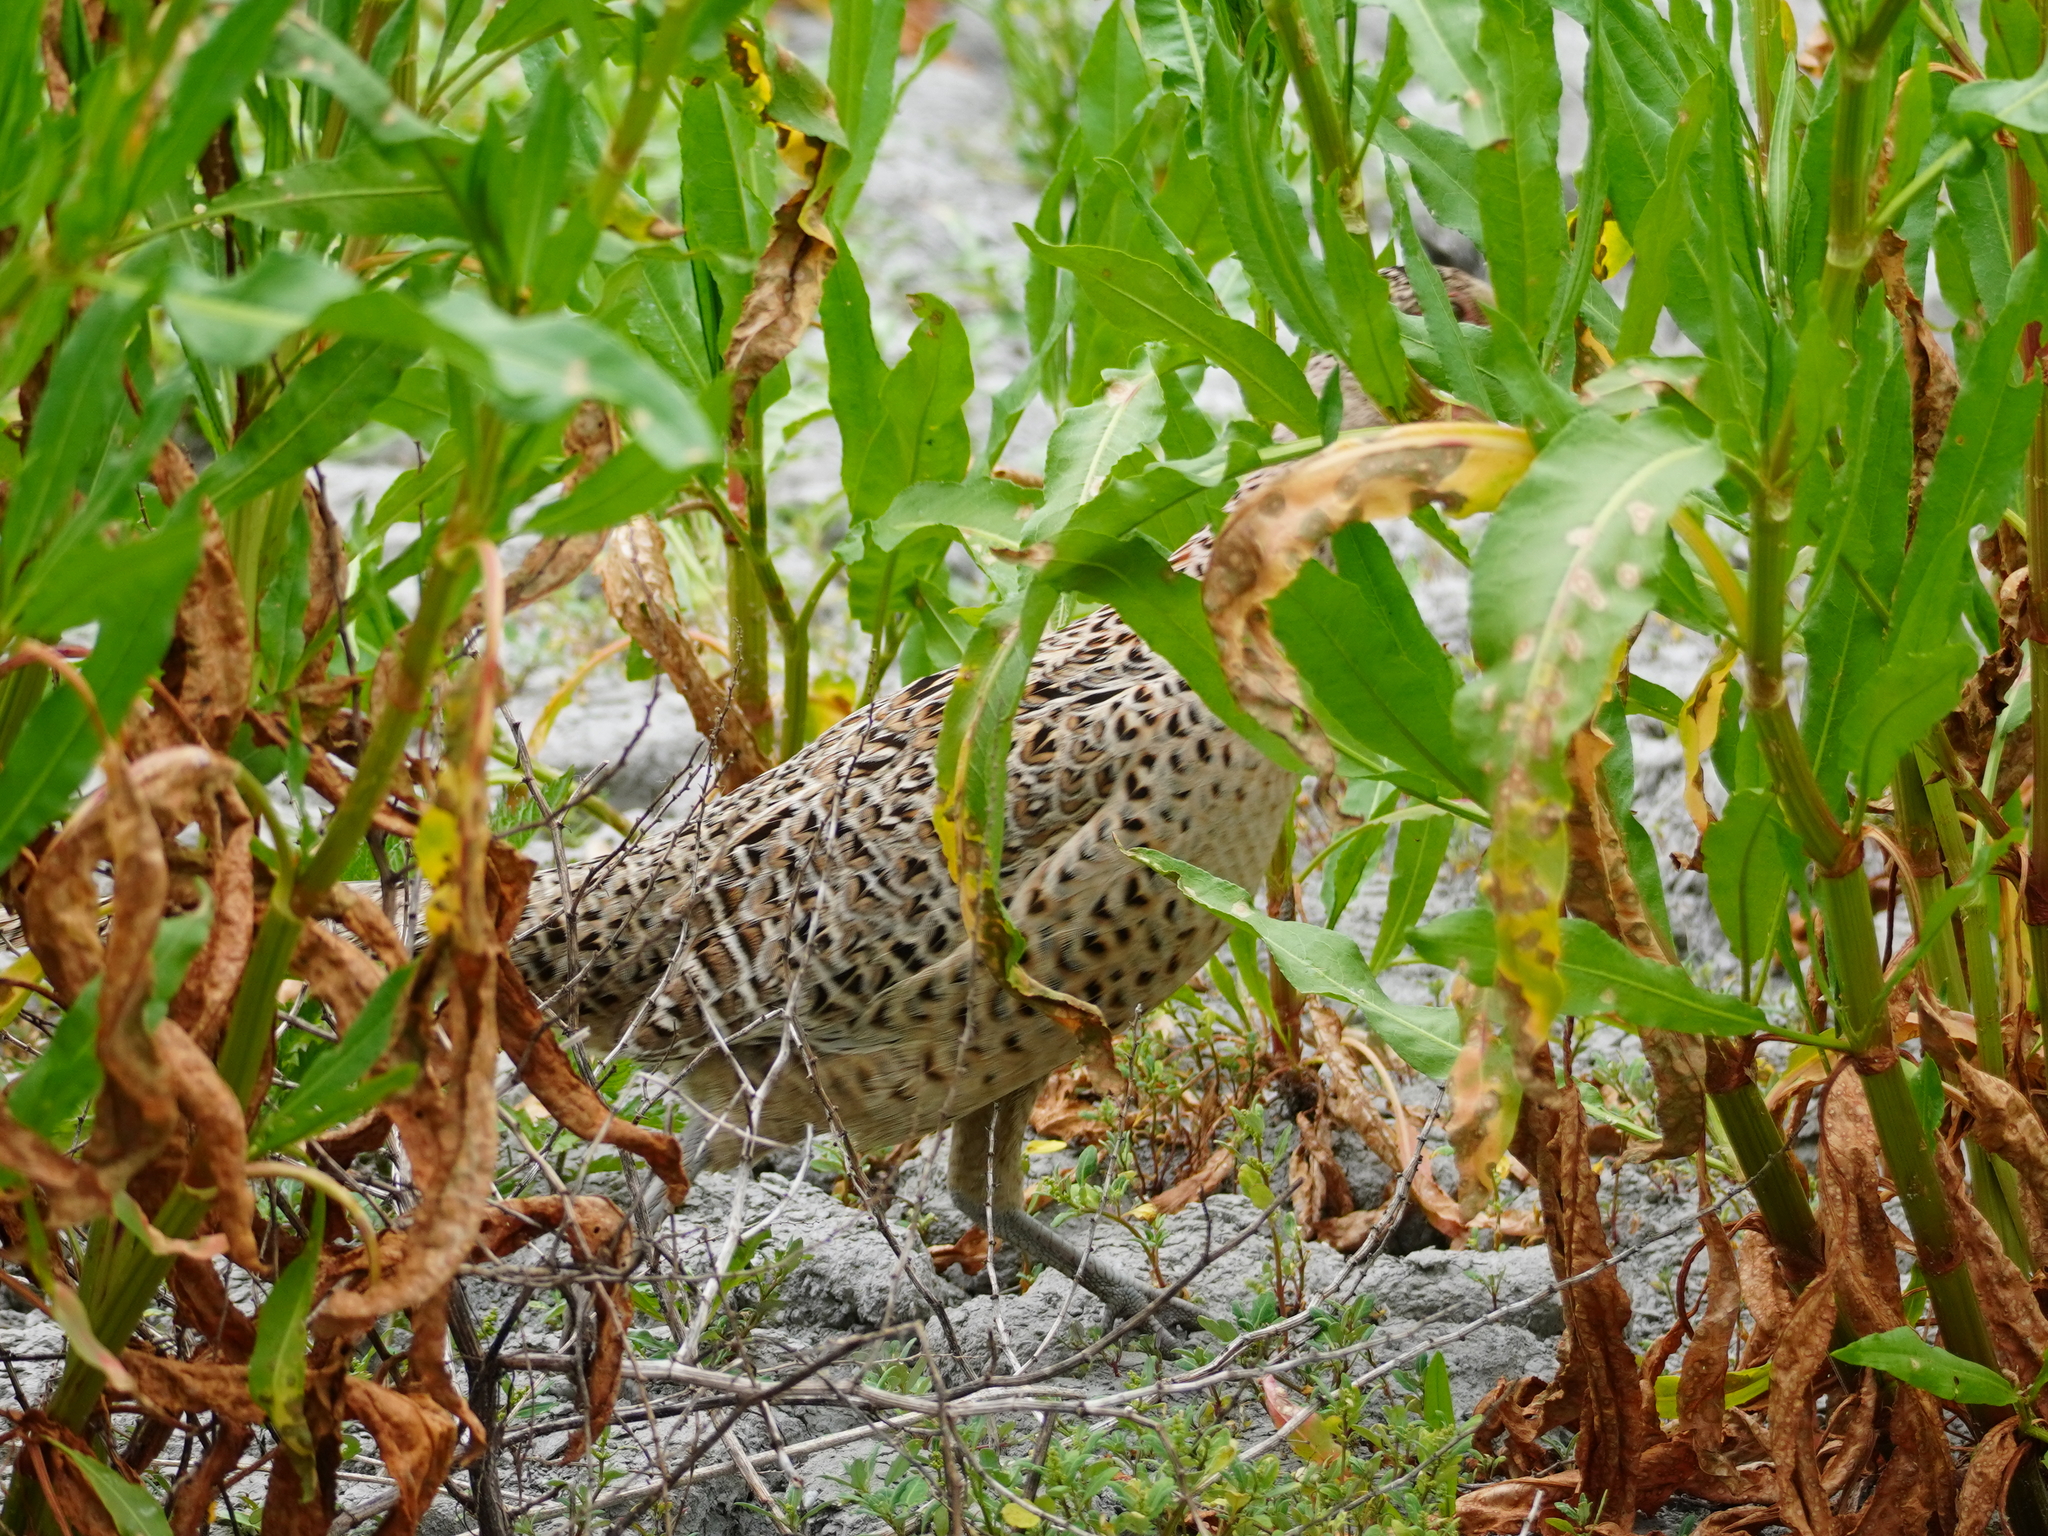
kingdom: Animalia
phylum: Chordata
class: Aves
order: Galliformes
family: Phasianidae
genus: Phasianus
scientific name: Phasianus colchicus
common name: Common pheasant
